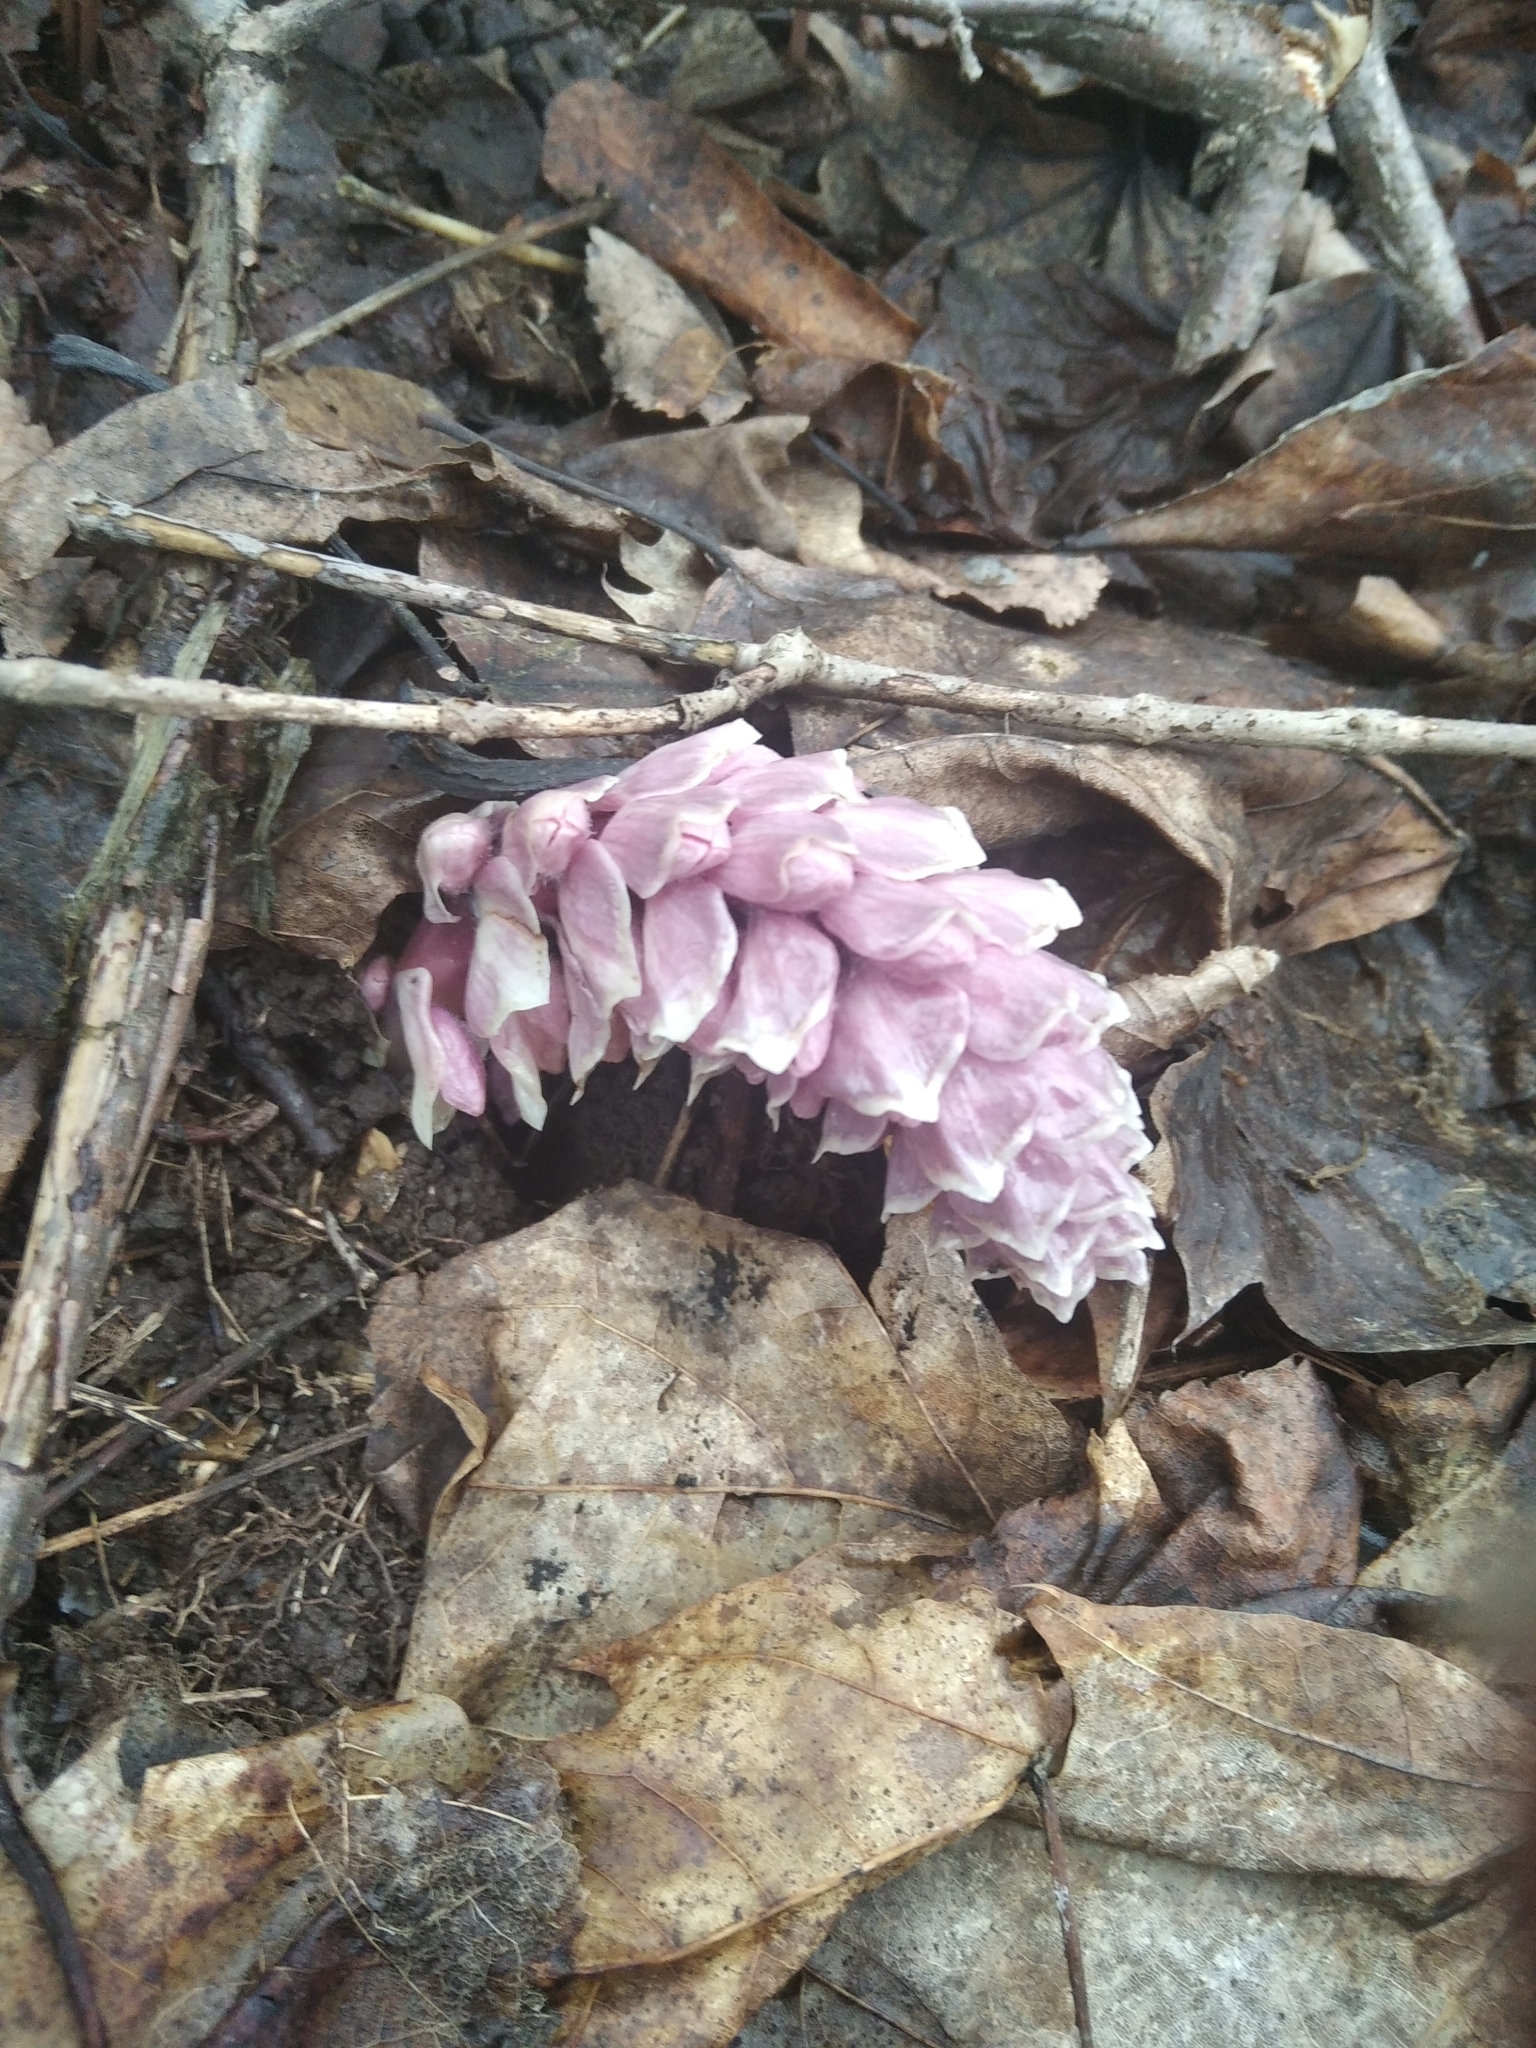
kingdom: Plantae
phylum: Tracheophyta
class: Magnoliopsida
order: Lamiales
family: Orobanchaceae
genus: Lathraea
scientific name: Lathraea squamaria
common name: Toothwort
